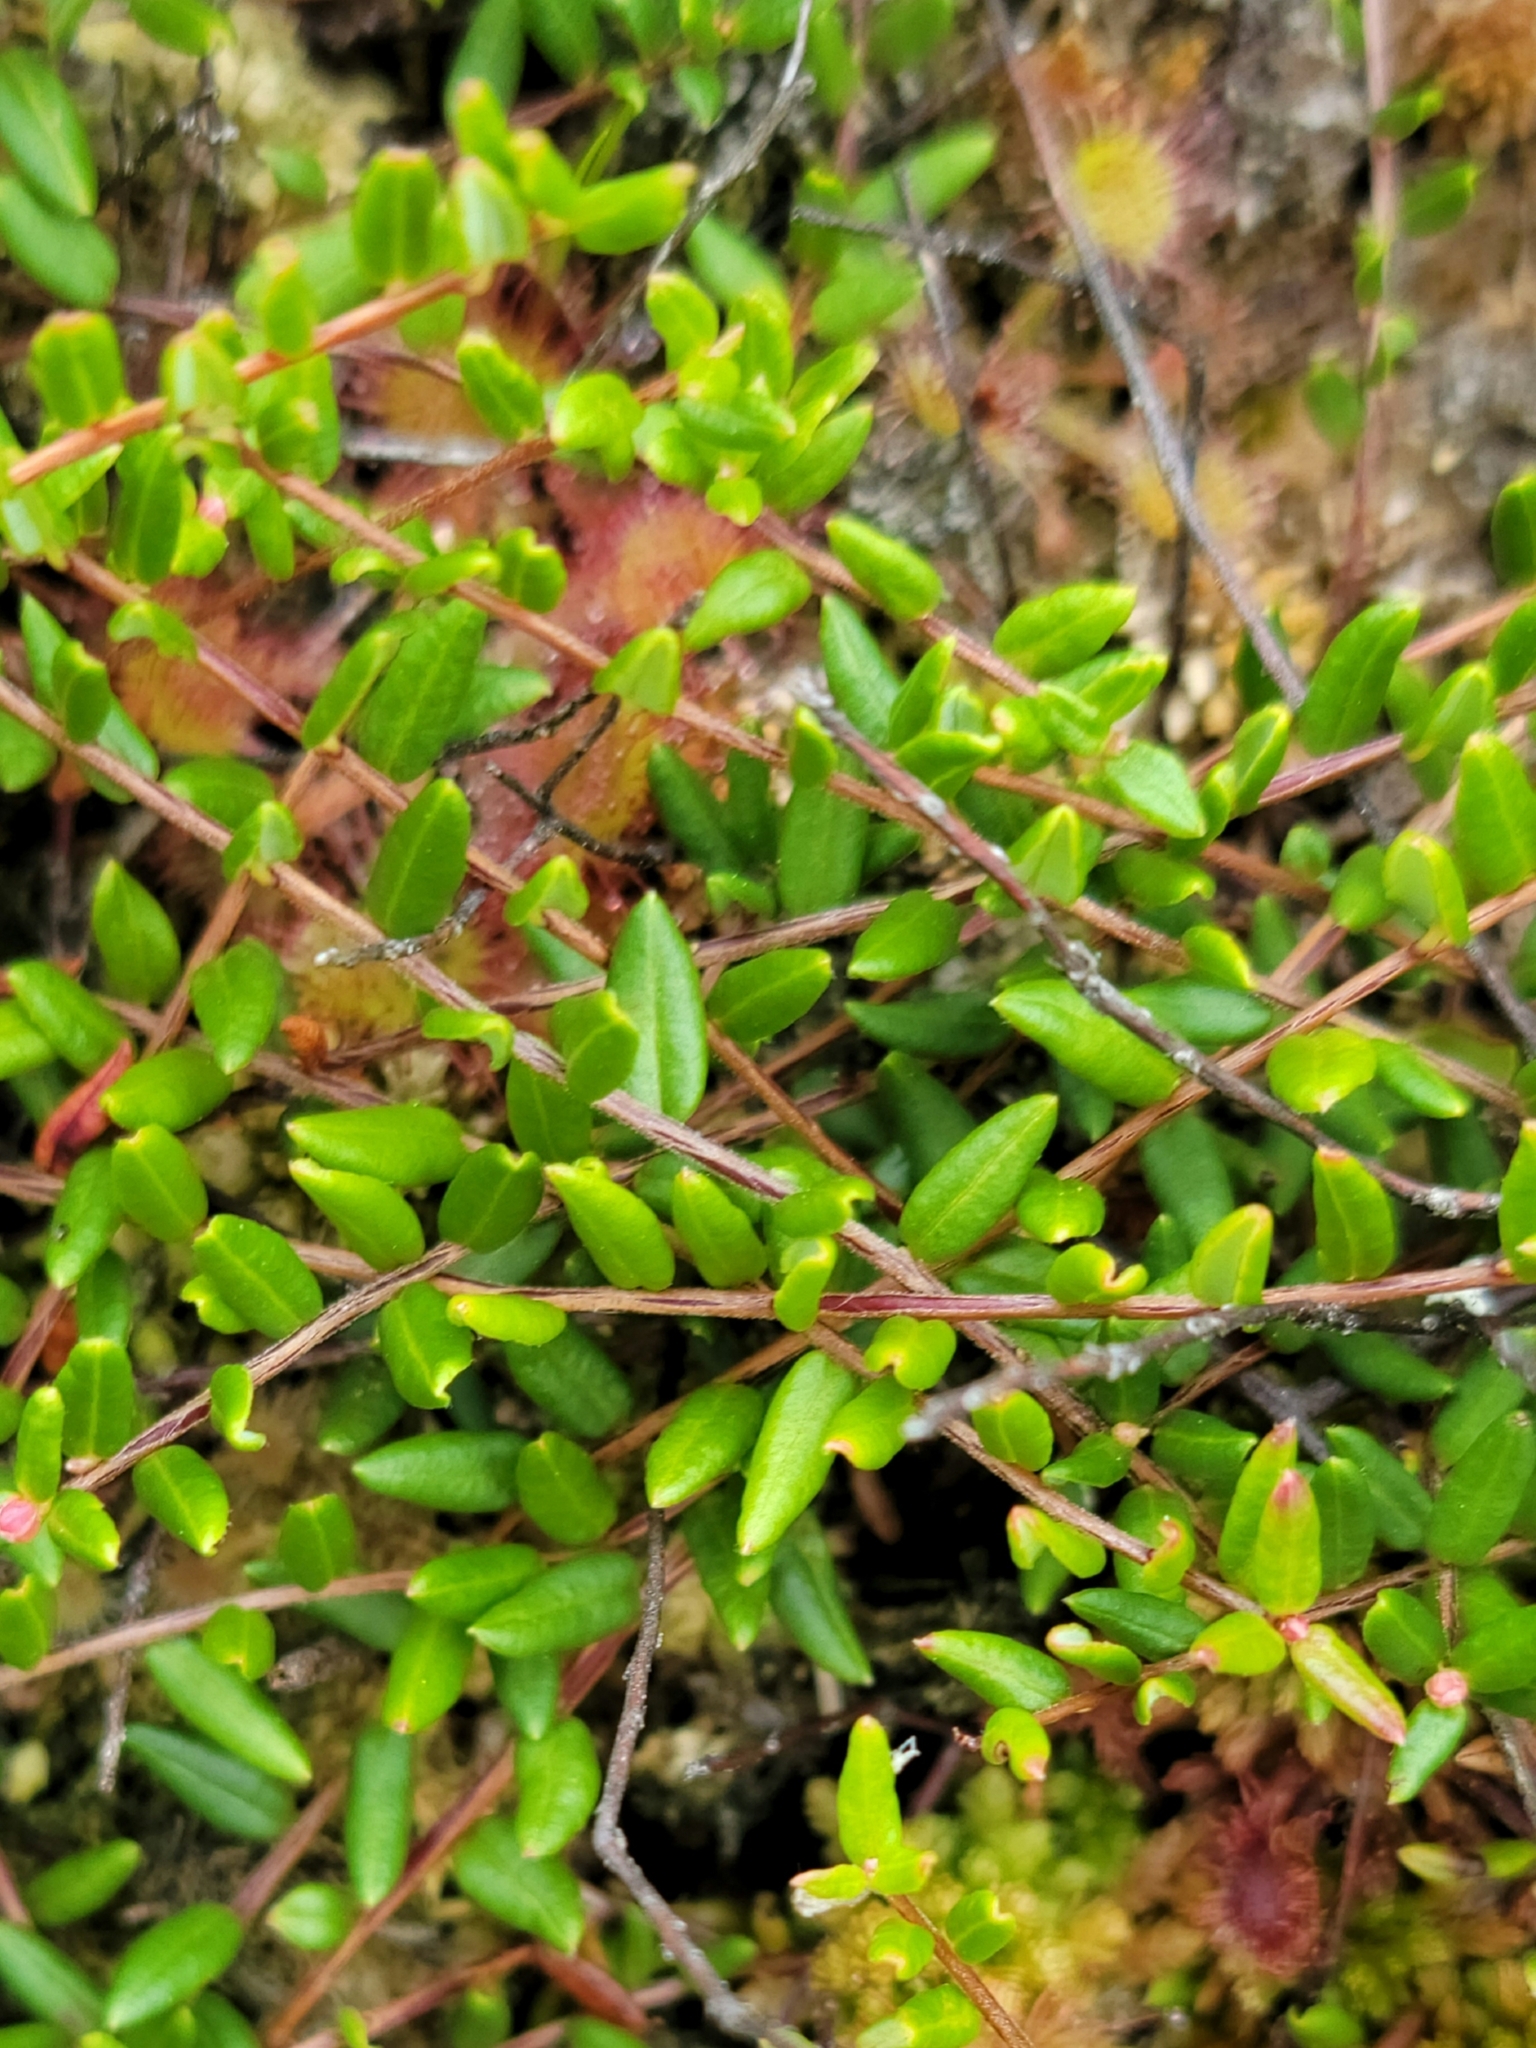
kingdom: Plantae
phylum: Tracheophyta
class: Magnoliopsida
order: Ericales
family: Ericaceae
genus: Vaccinium
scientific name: Vaccinium oxycoccos
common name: Cranberry
